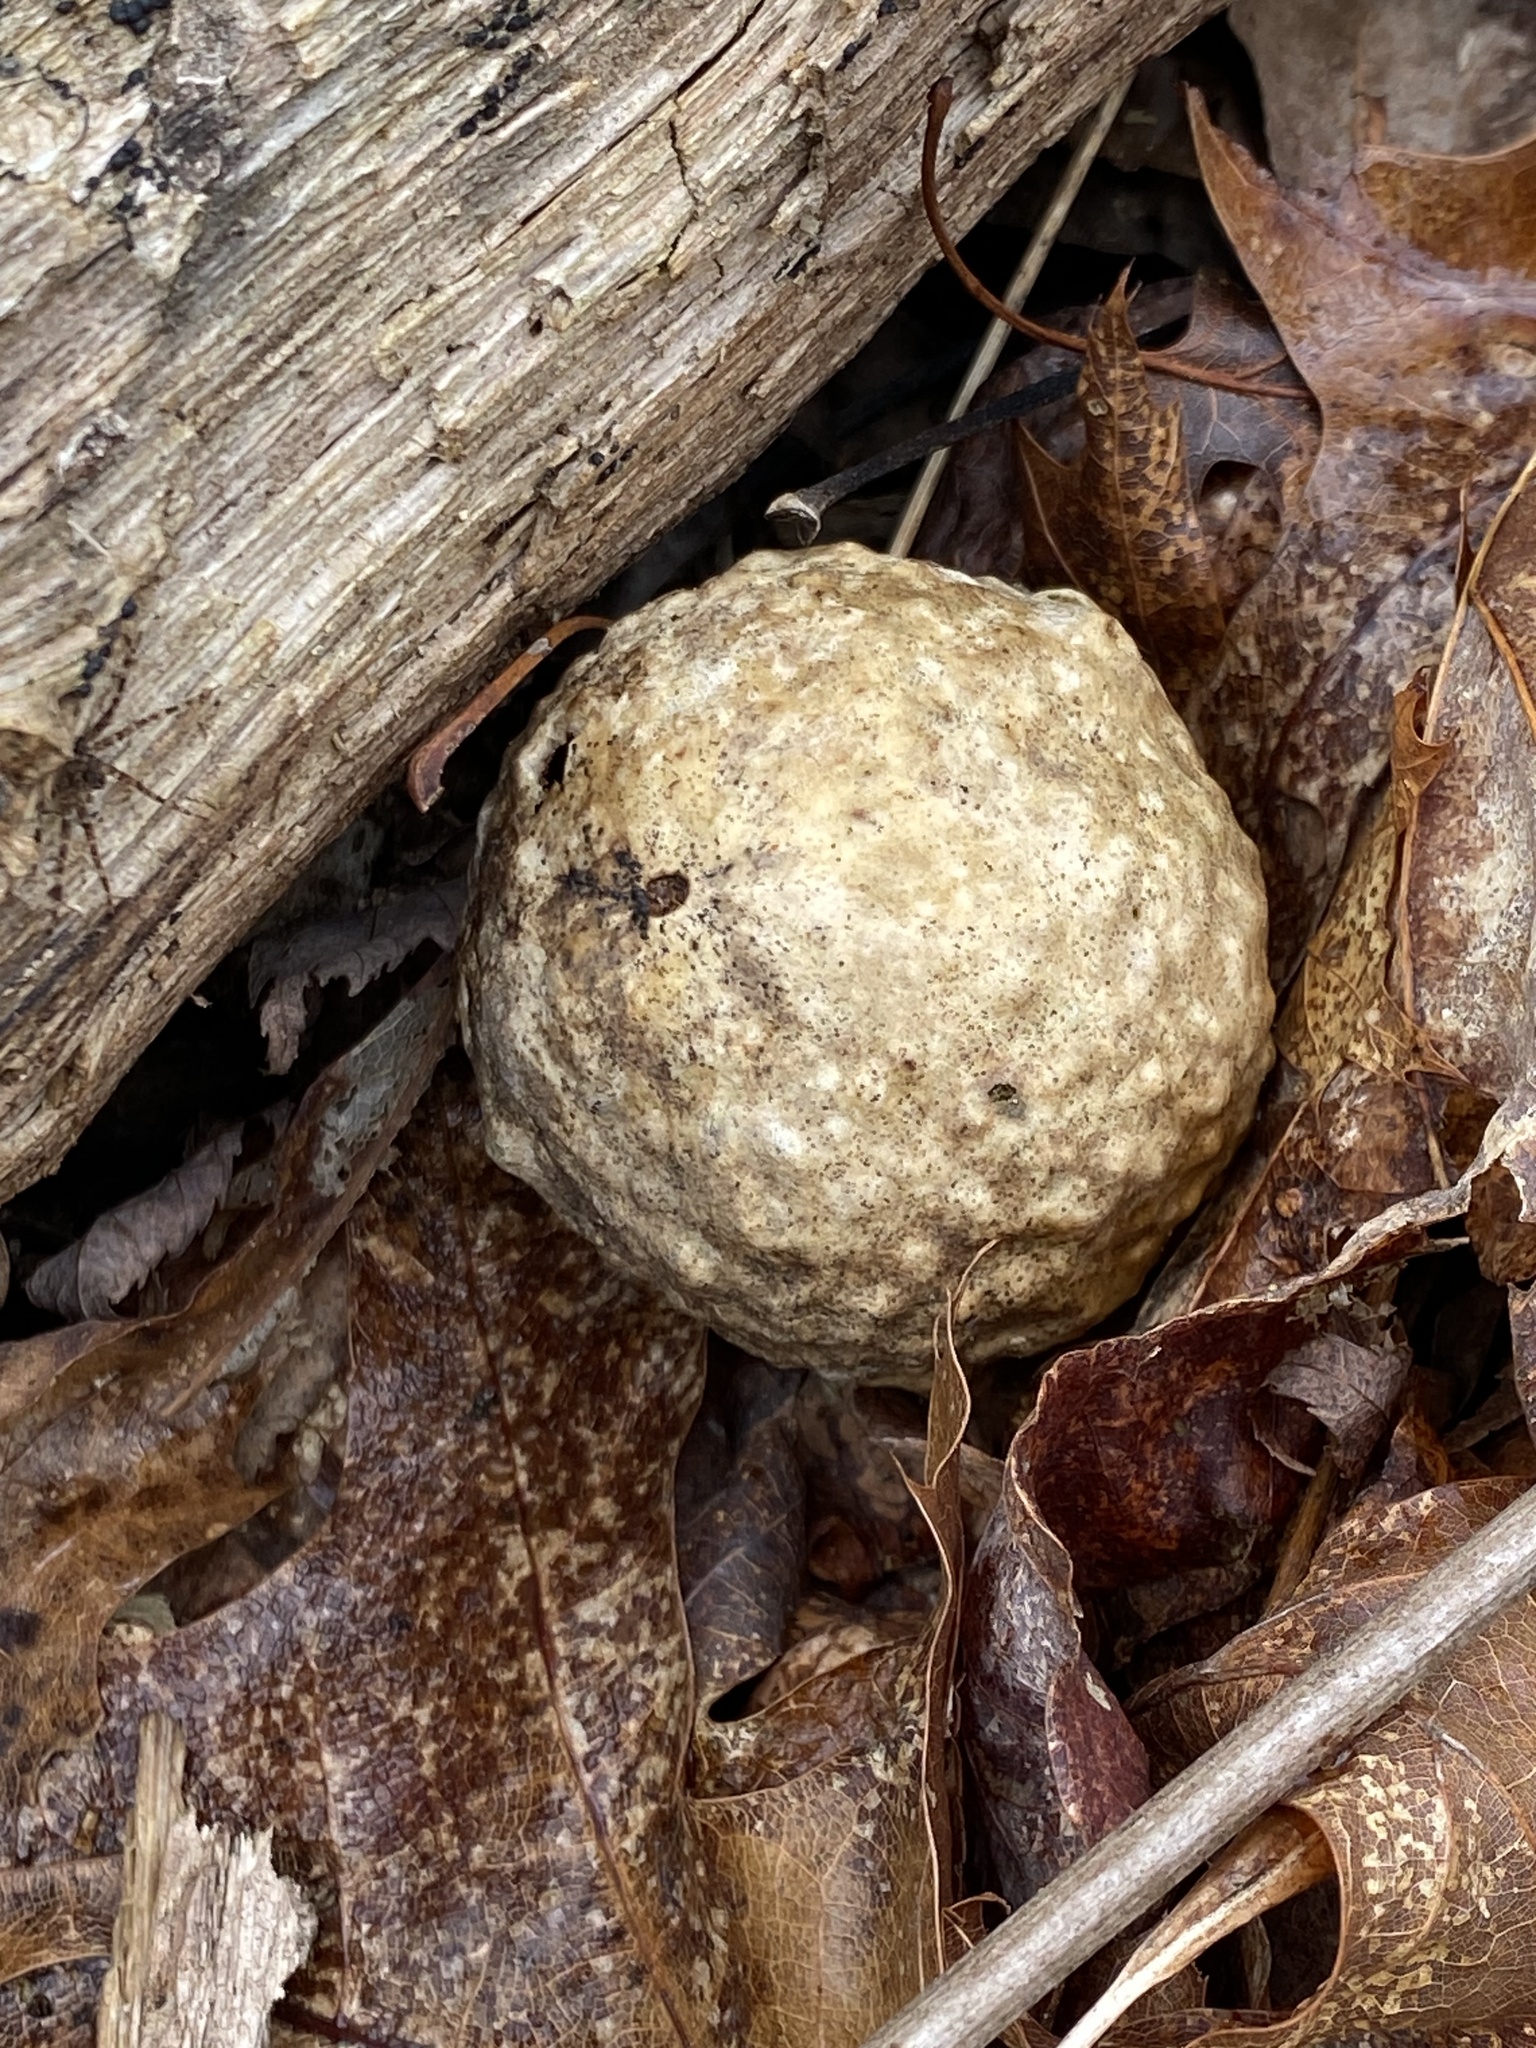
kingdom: Animalia
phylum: Arthropoda
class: Insecta
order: Hymenoptera
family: Cynipidae
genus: Amphibolips
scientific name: Amphibolips
